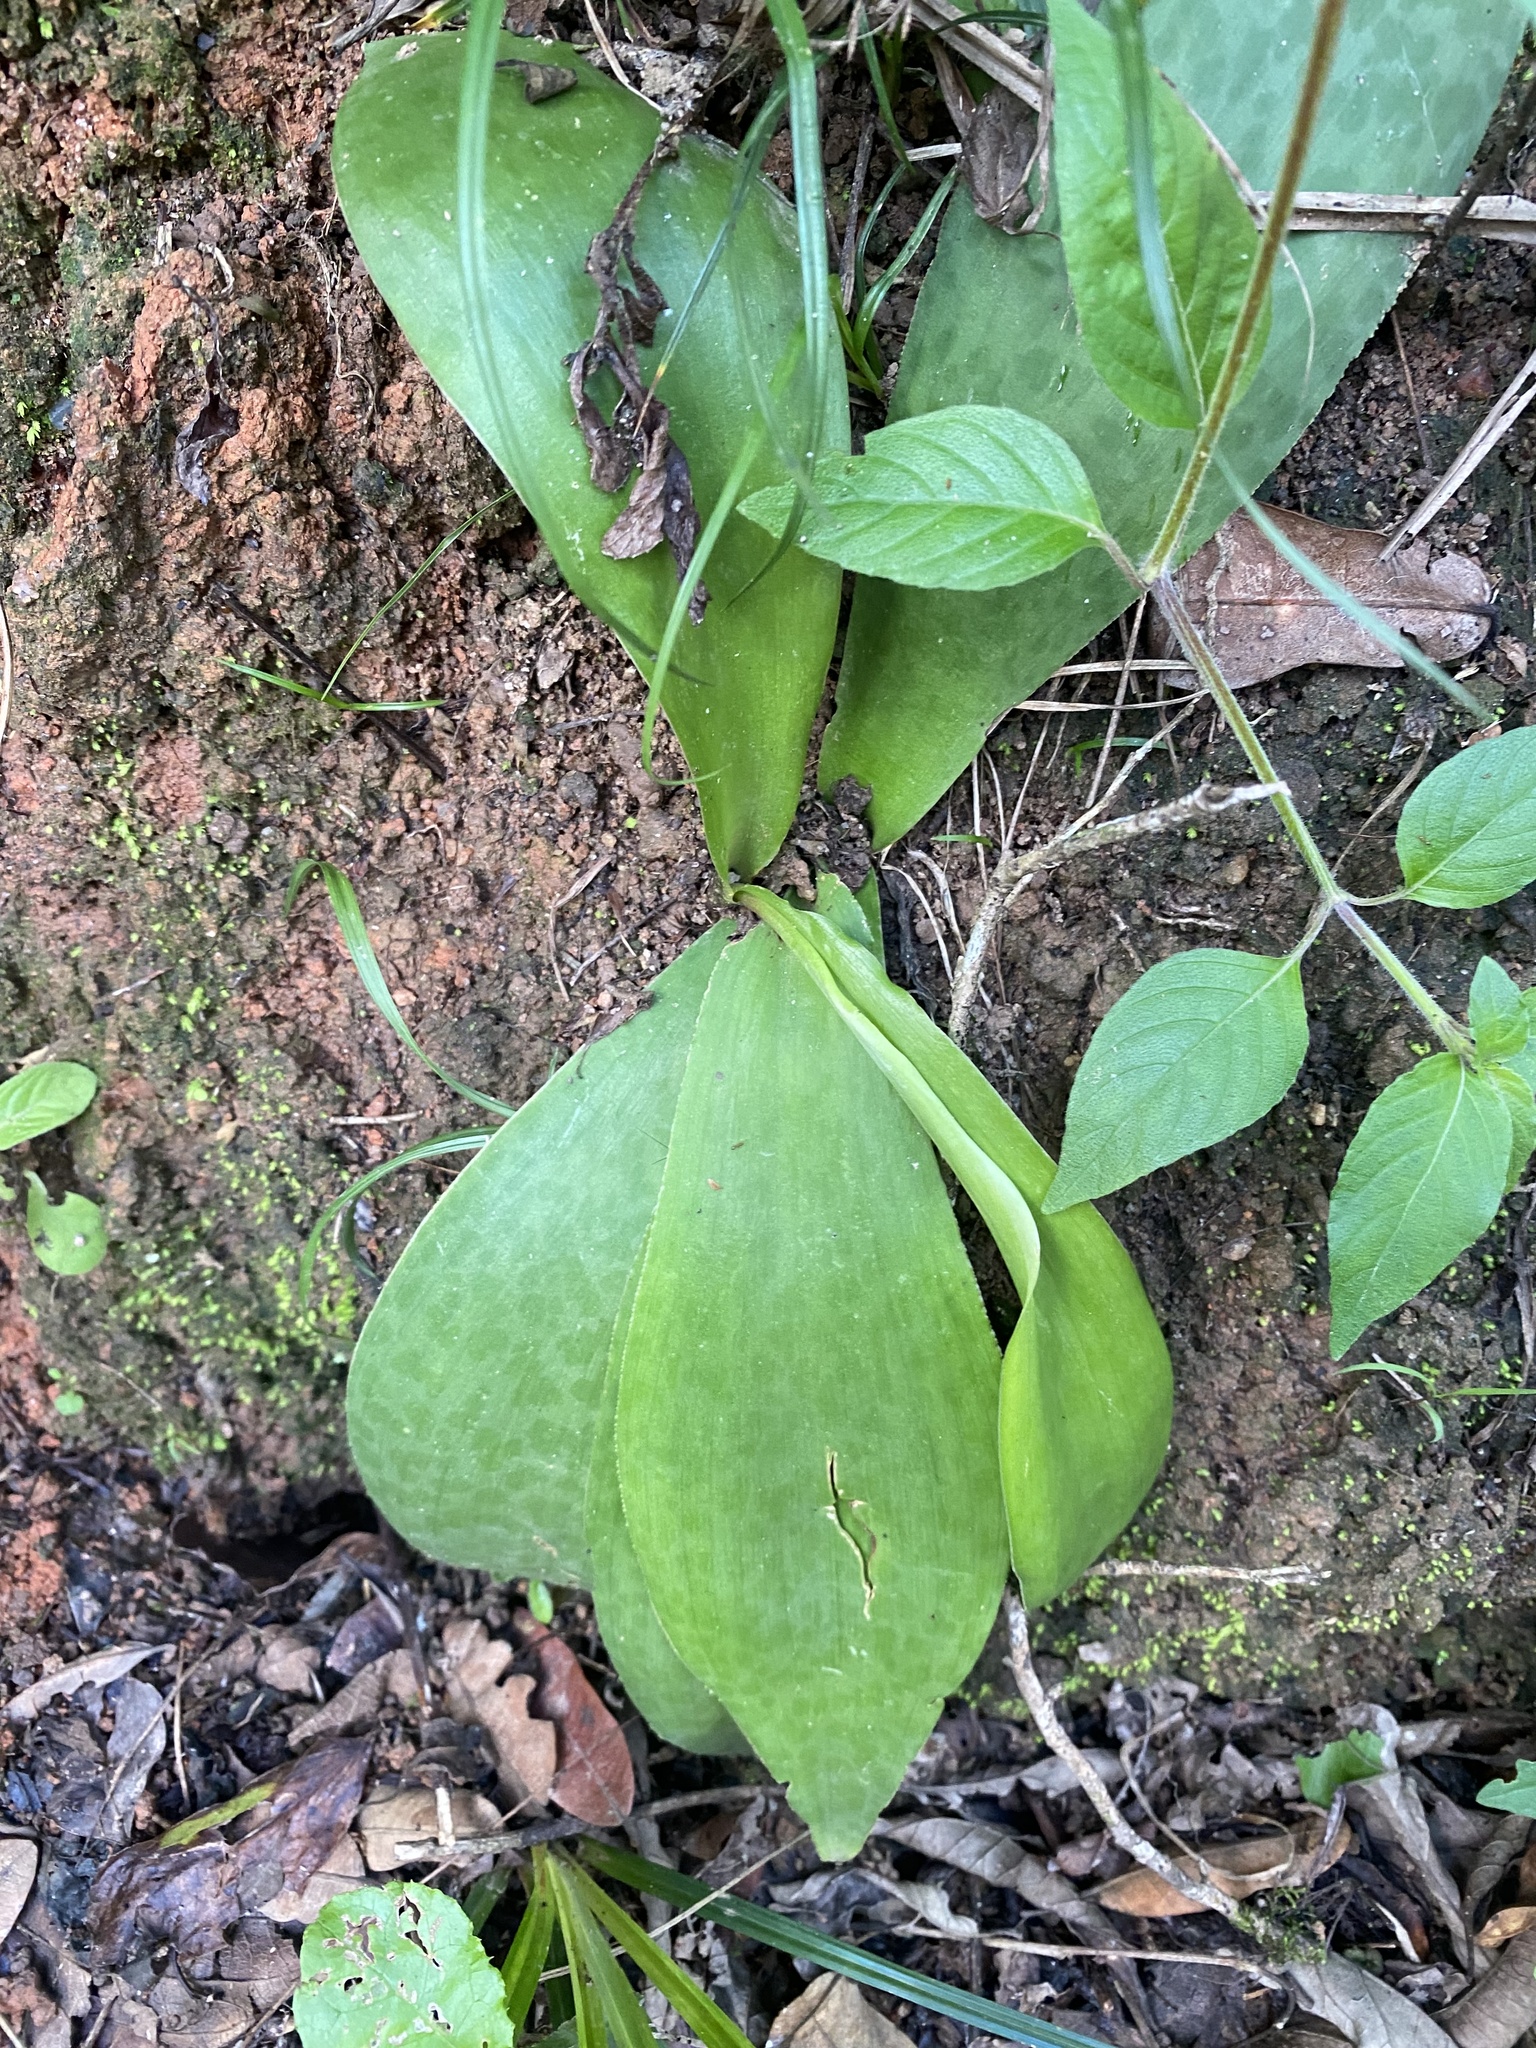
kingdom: Plantae
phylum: Tracheophyta
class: Liliopsida
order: Asparagales
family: Asparagaceae
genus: Ledebouria
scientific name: Ledebouria ovatifolia
